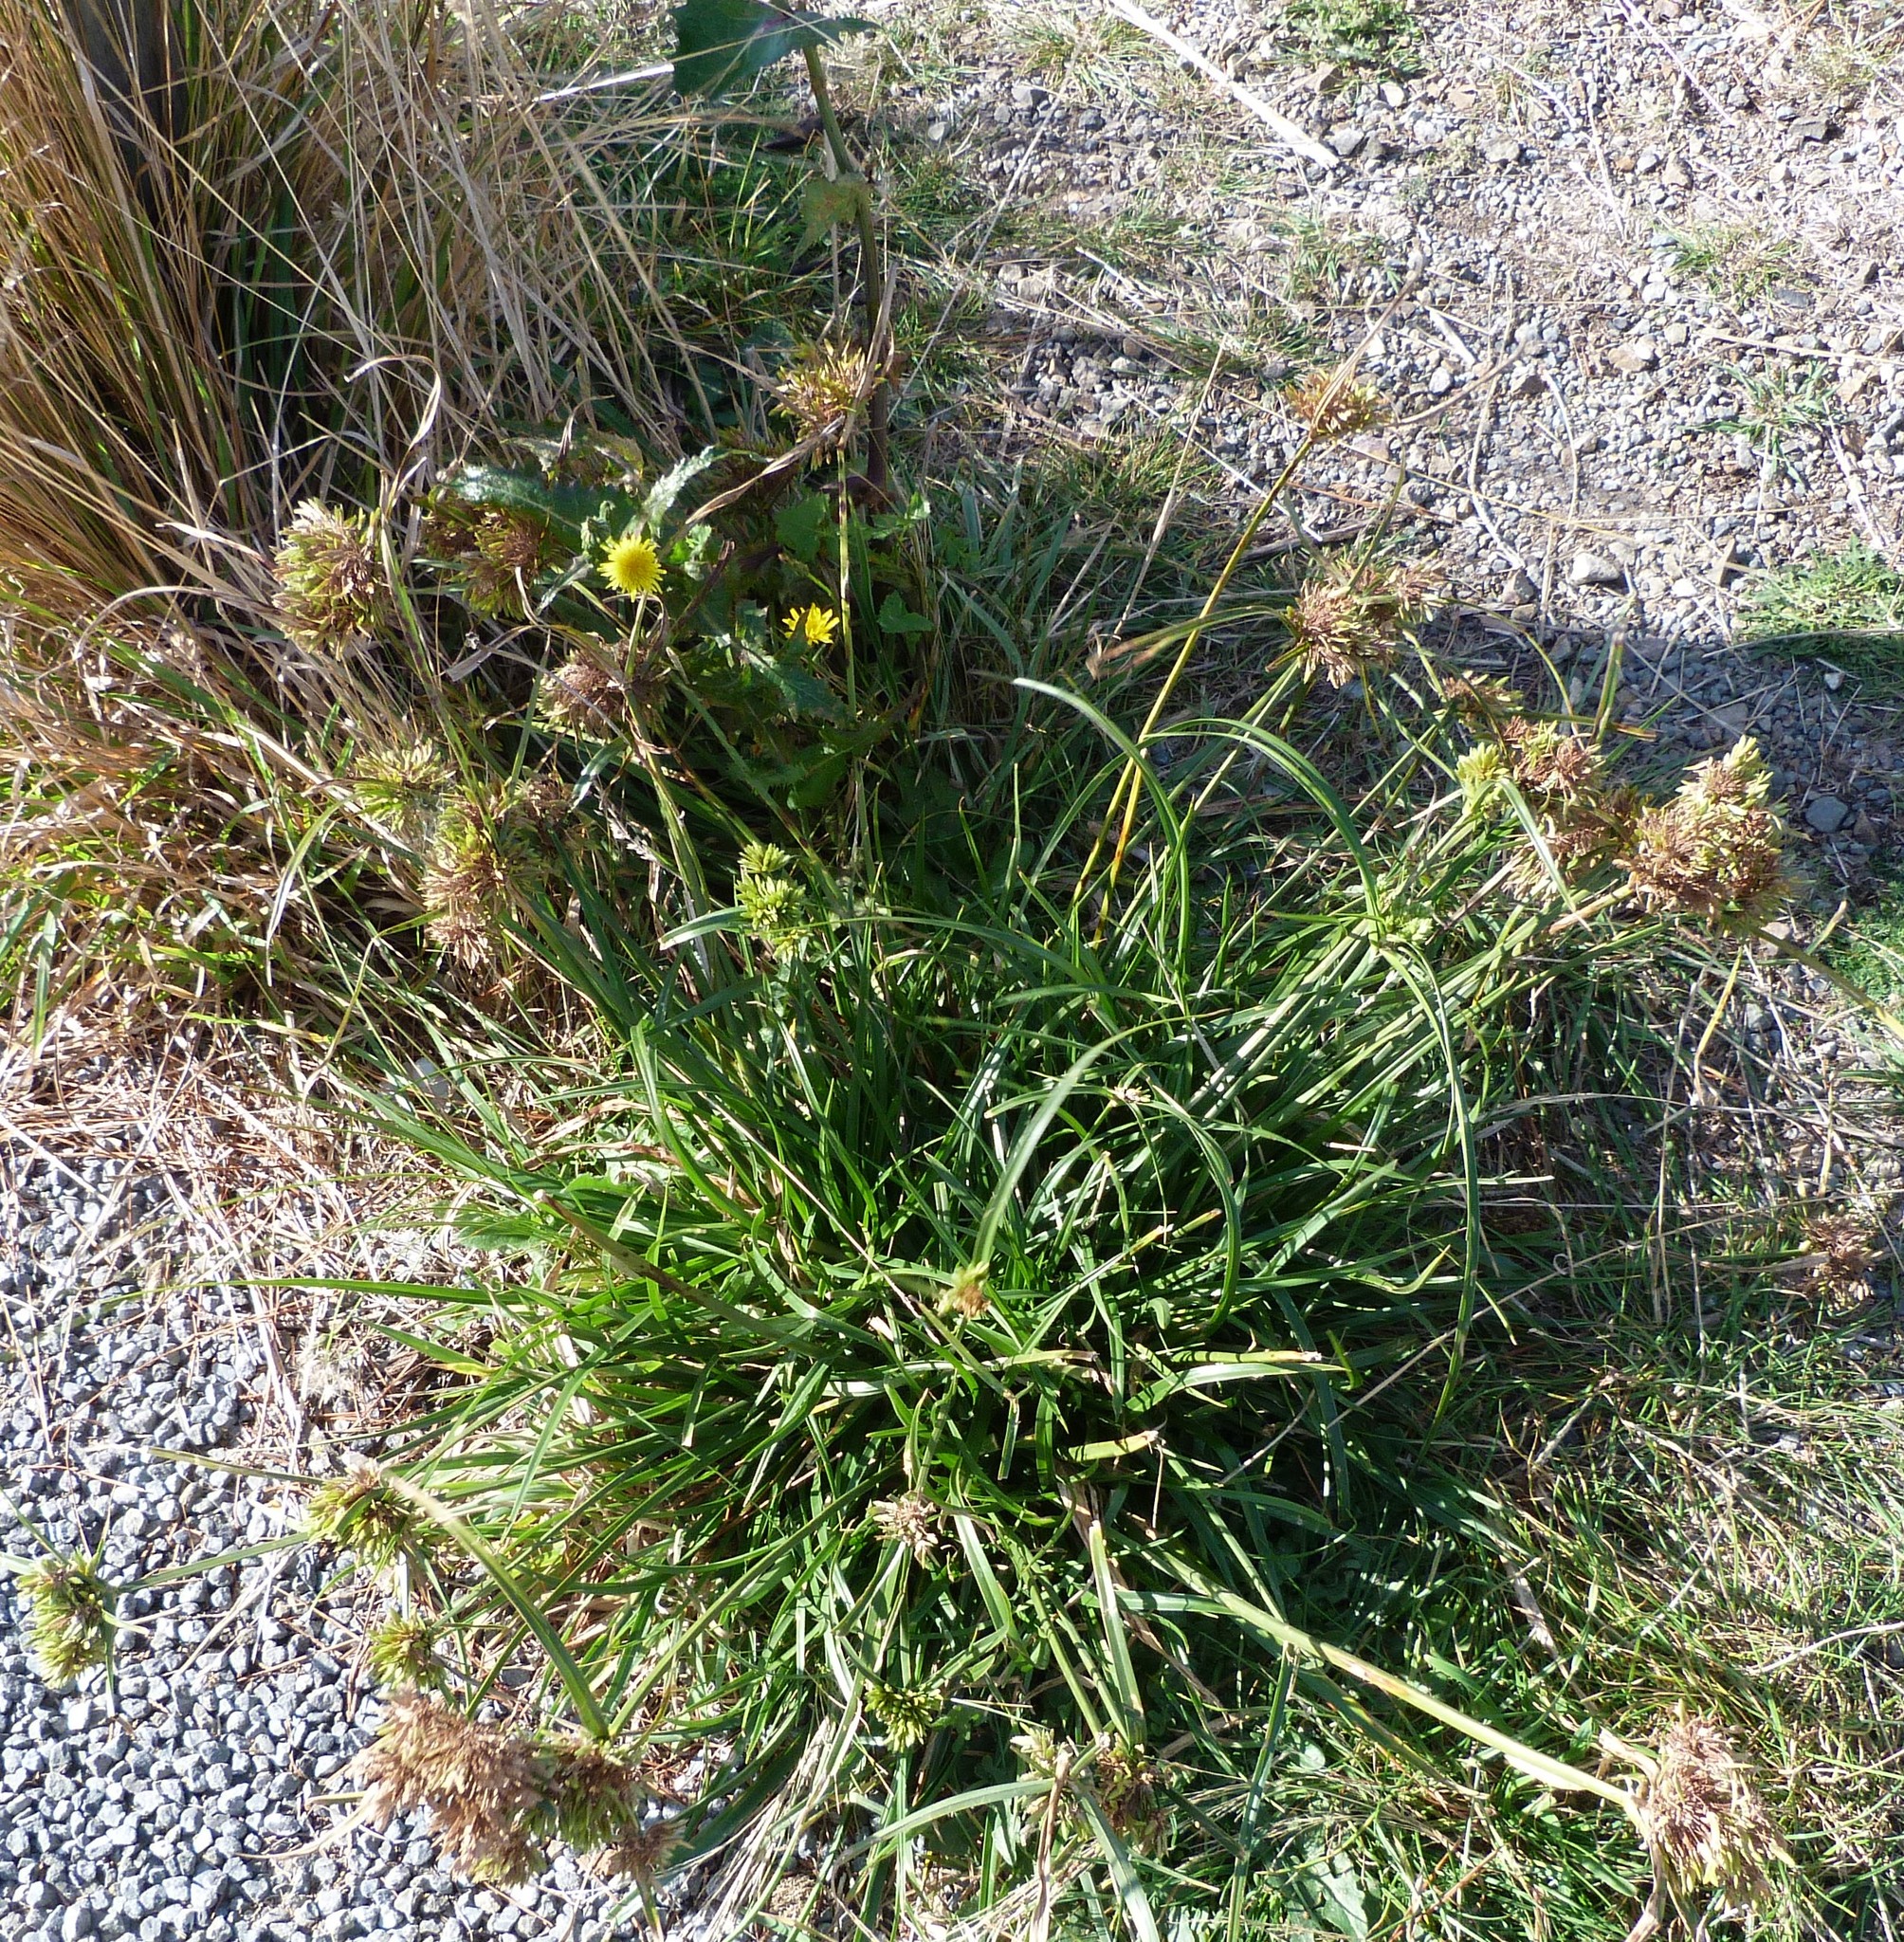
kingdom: Plantae
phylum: Tracheophyta
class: Liliopsida
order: Poales
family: Cyperaceae
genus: Cyperus
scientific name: Cyperus eragrostis
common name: Tall flatsedge
